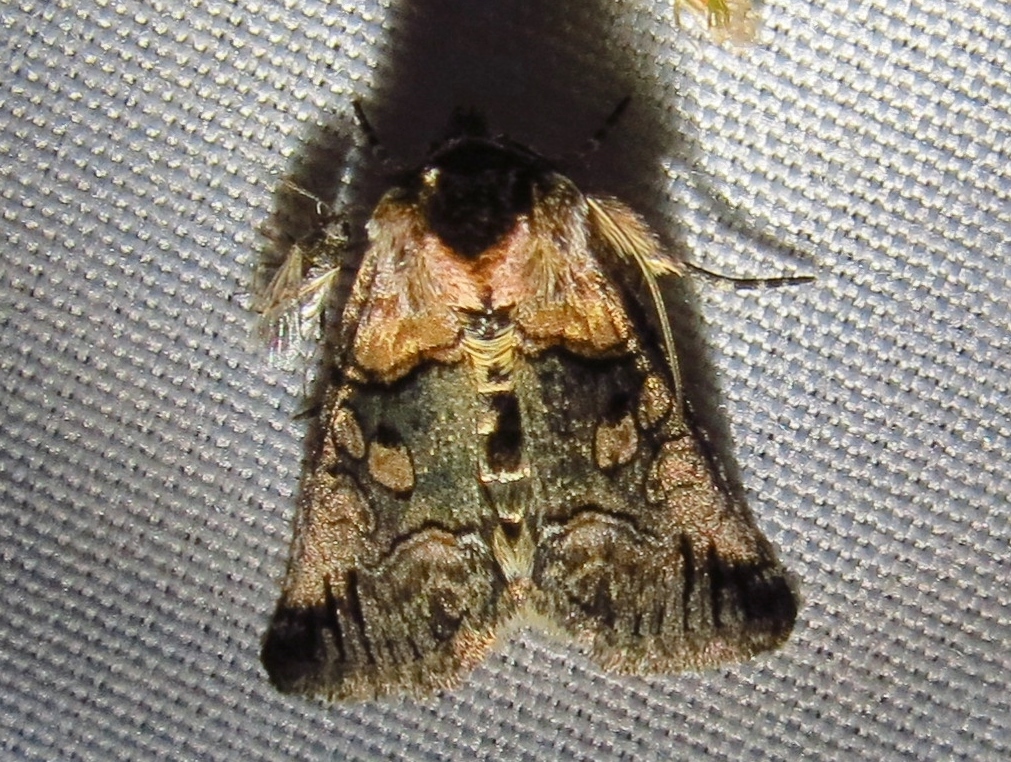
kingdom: Animalia
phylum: Arthropoda
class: Insecta
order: Lepidoptera
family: Noctuidae
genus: Abrostola
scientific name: Abrostola microvalis
